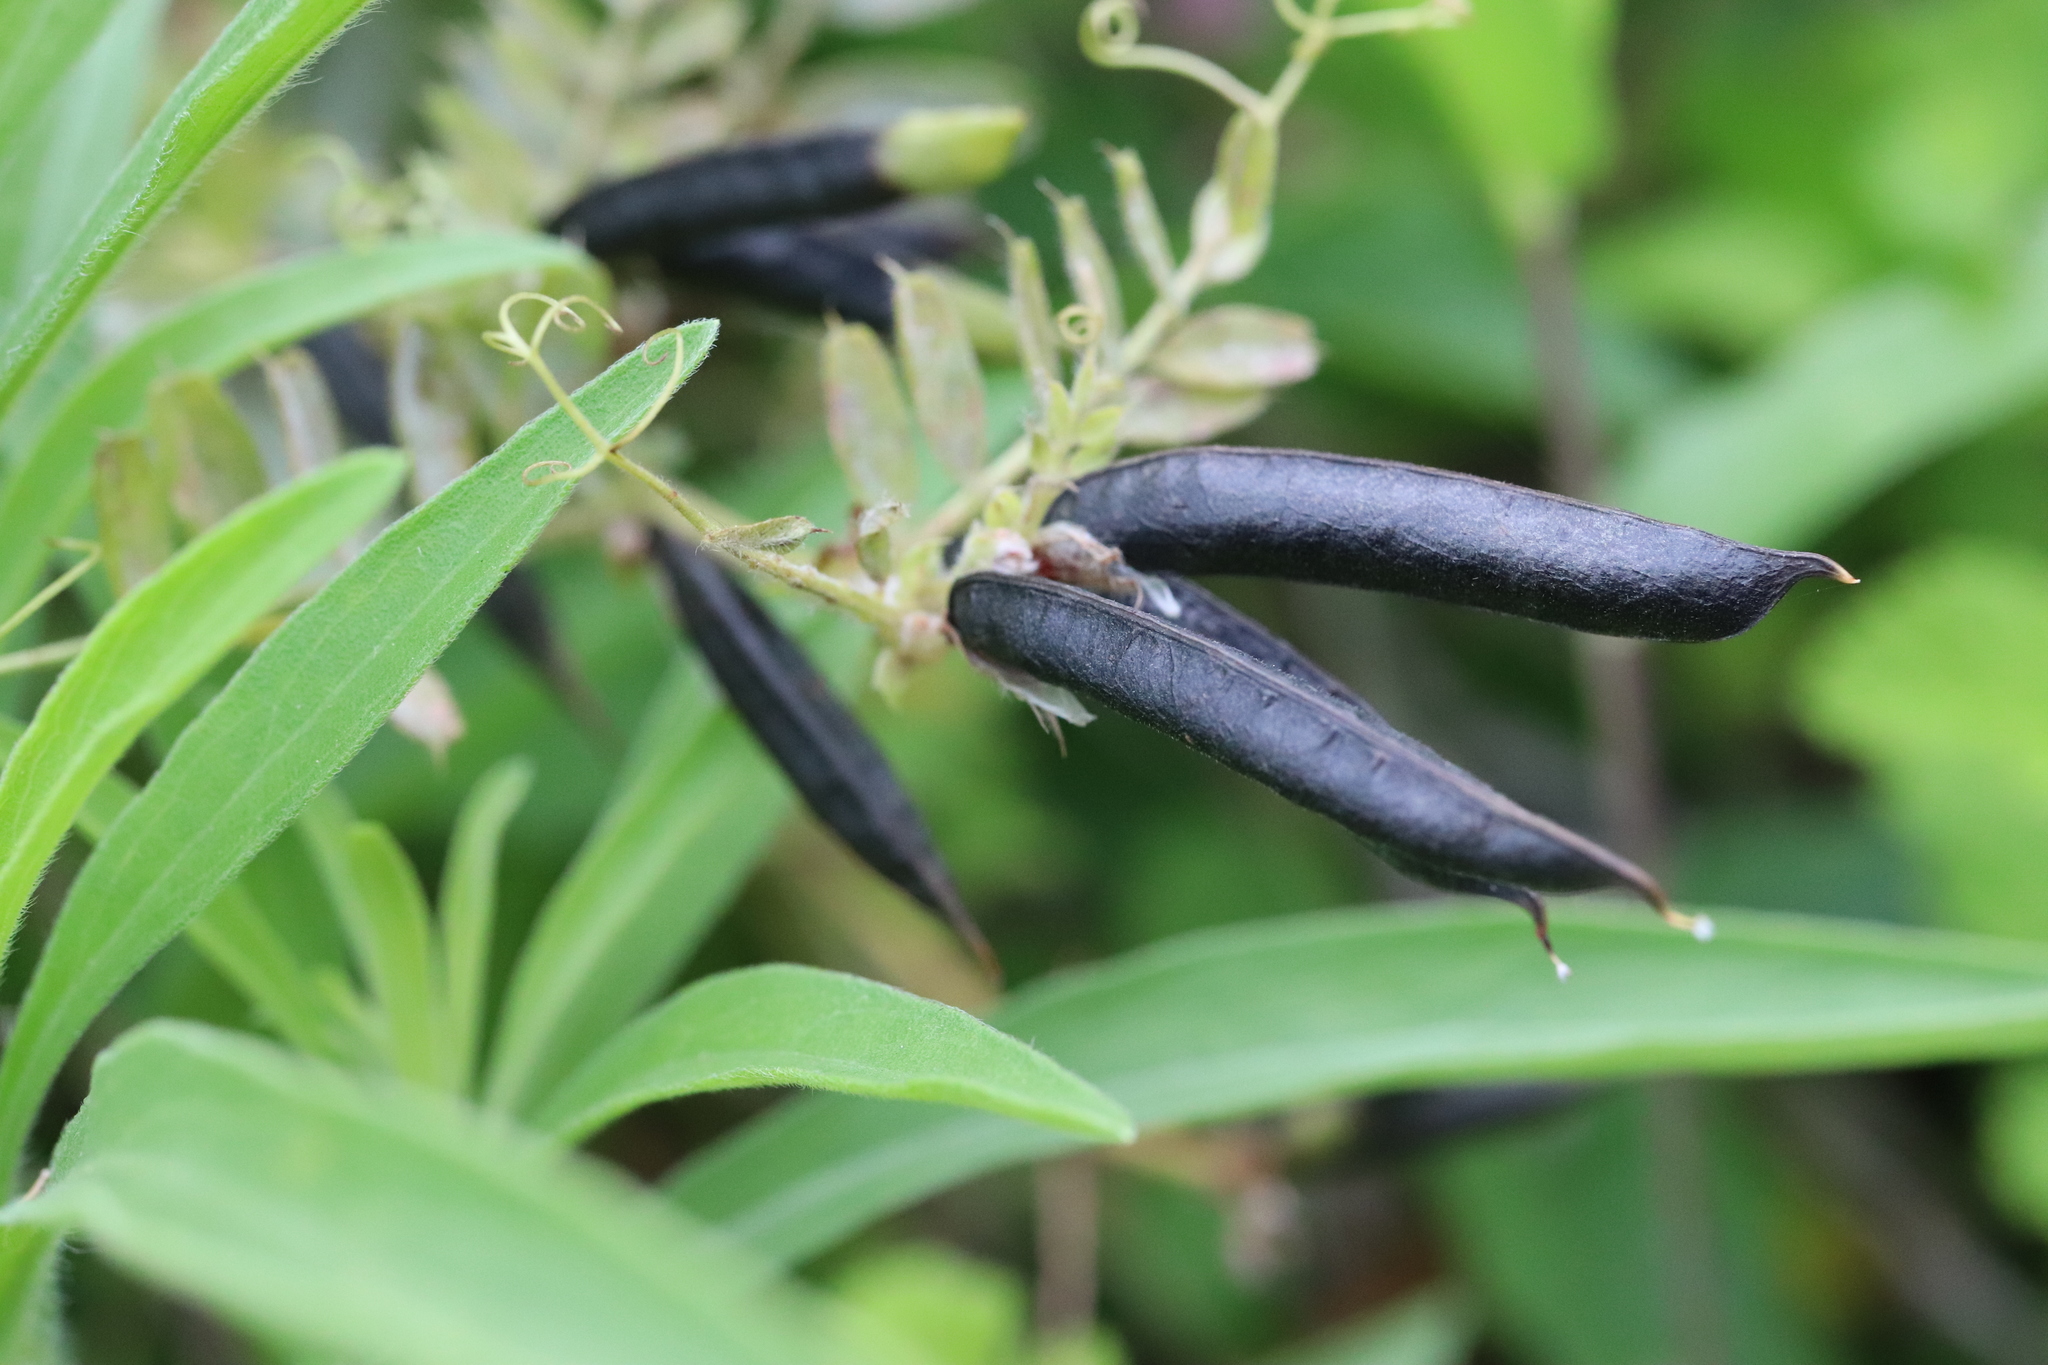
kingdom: Plantae
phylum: Tracheophyta
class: Magnoliopsida
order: Fabales
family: Fabaceae
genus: Vicia
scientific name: Vicia sativa
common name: Garden vetch
